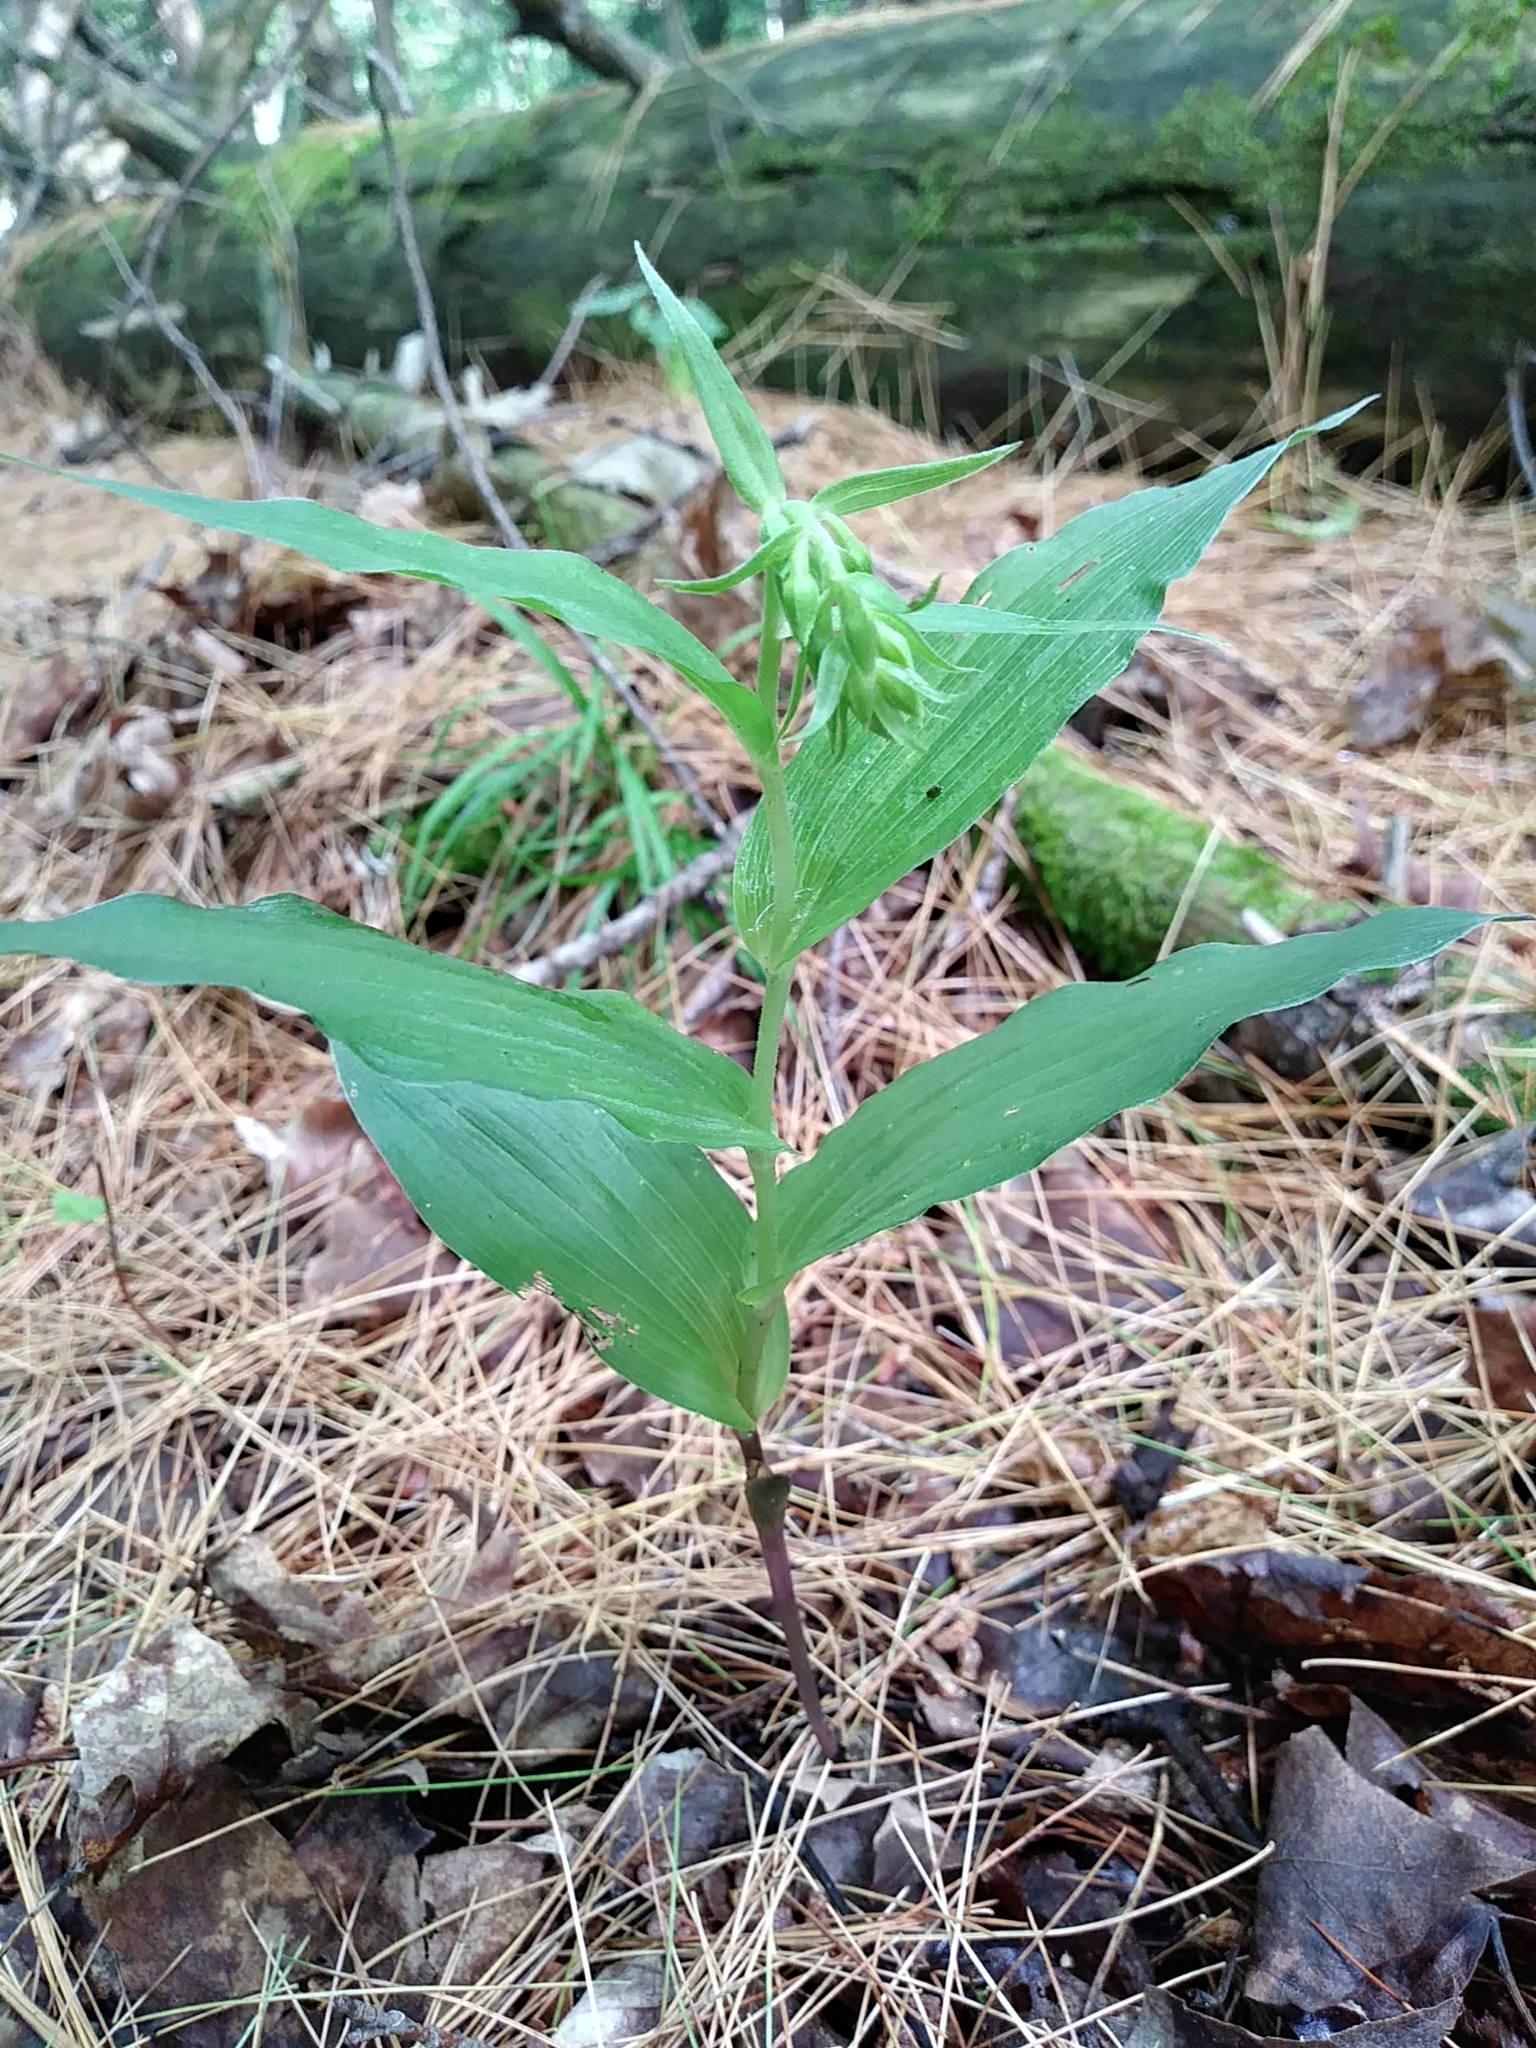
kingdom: Plantae
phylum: Tracheophyta
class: Liliopsida
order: Asparagales
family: Orchidaceae
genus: Epipactis
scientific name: Epipactis helleborine
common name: Broad-leaved helleborine
